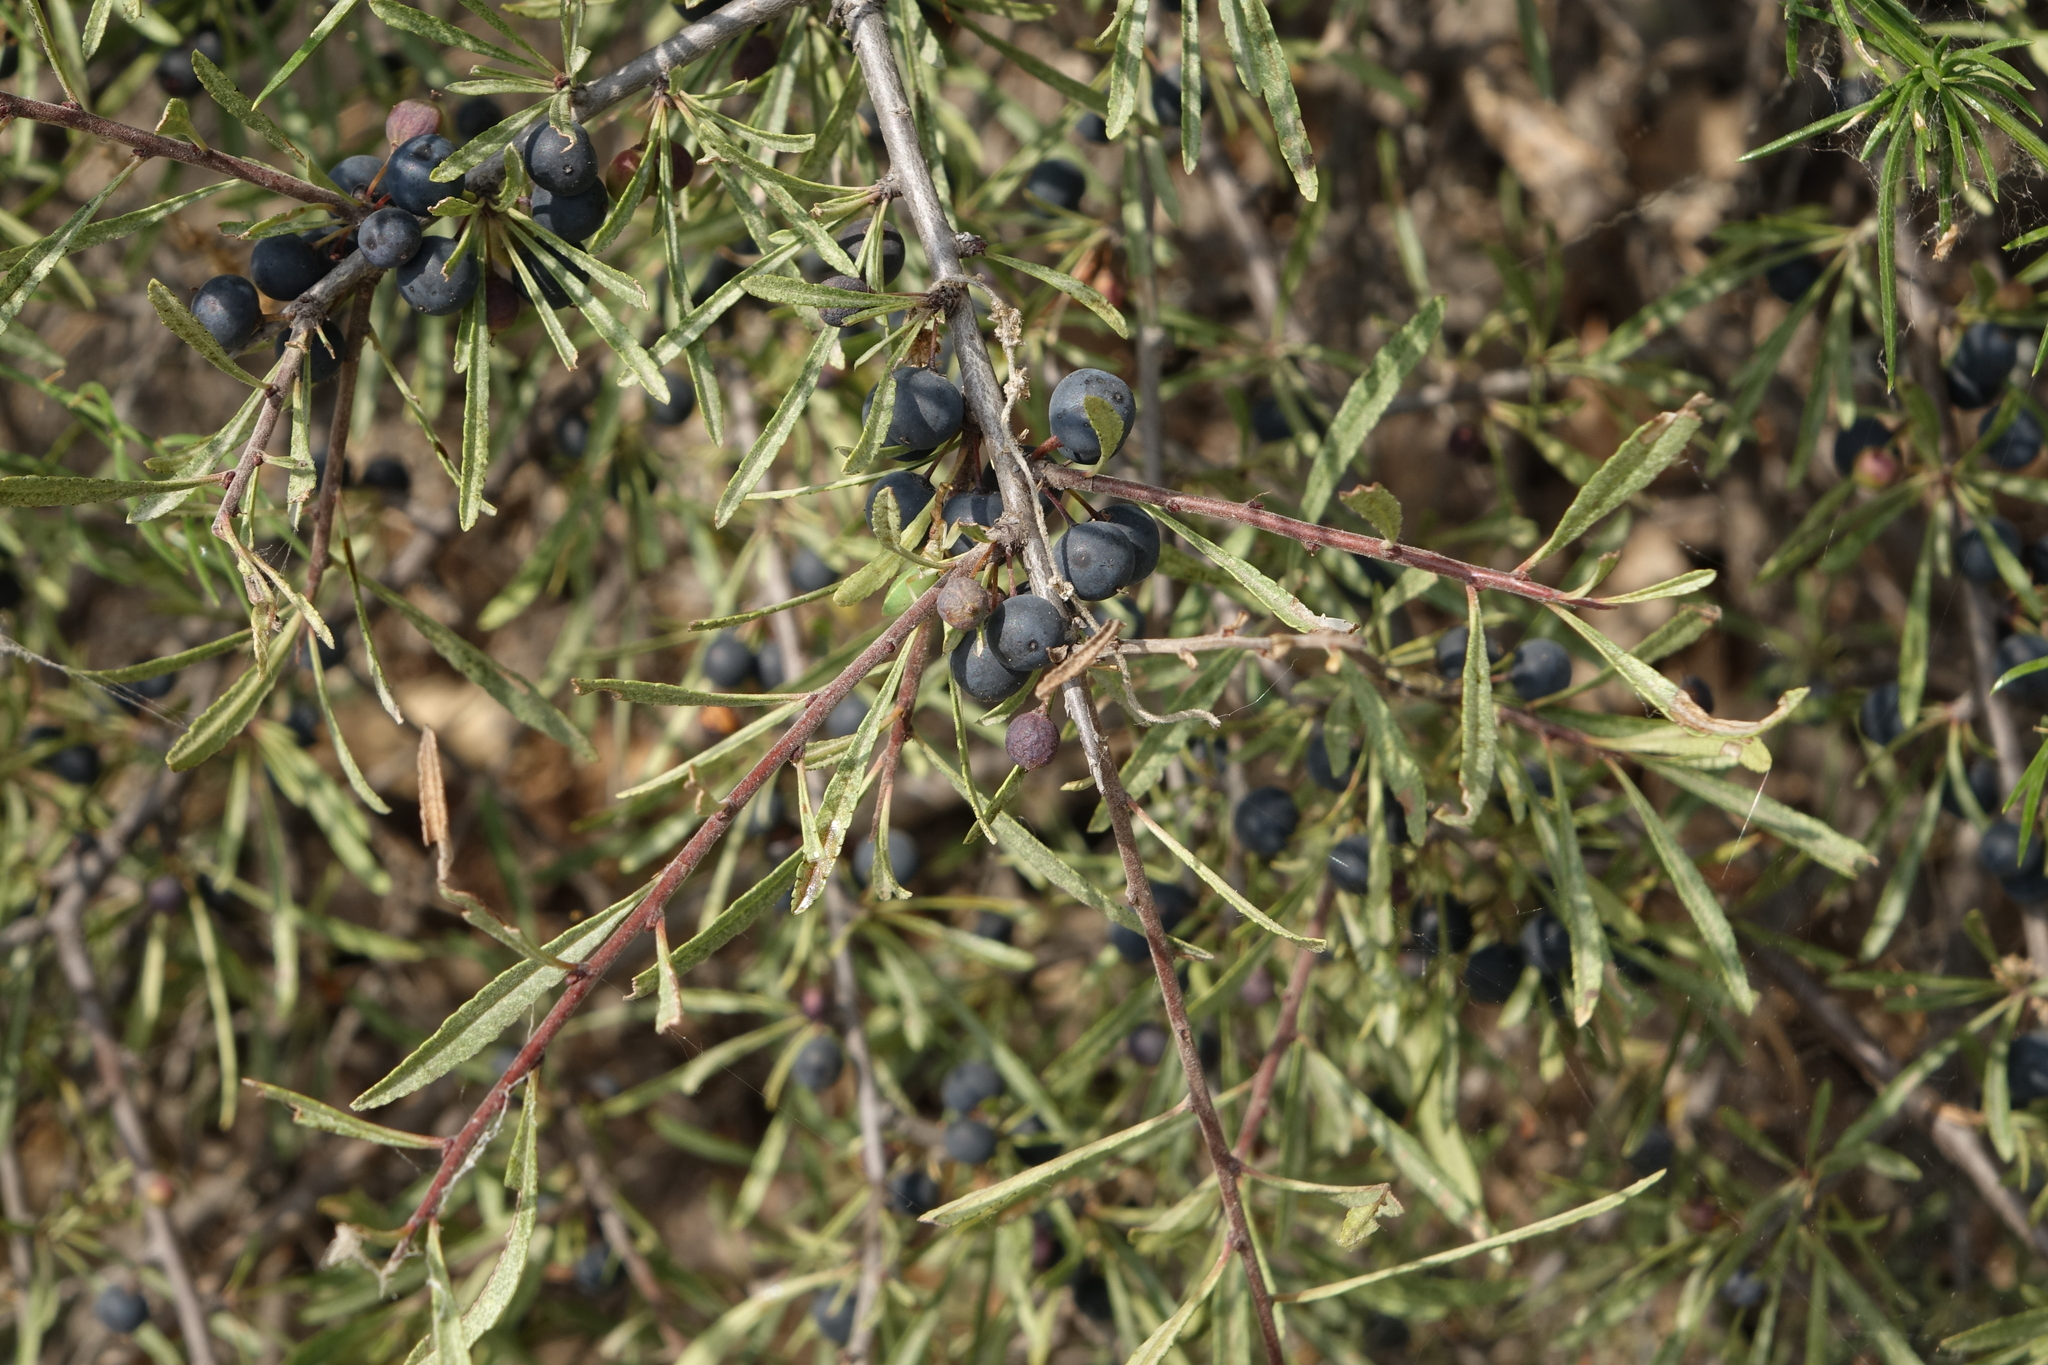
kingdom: Plantae
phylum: Tracheophyta
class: Magnoliopsida
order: Rosales
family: Rhamnaceae
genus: Rhamnus
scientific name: Rhamnus erythroxyloides
